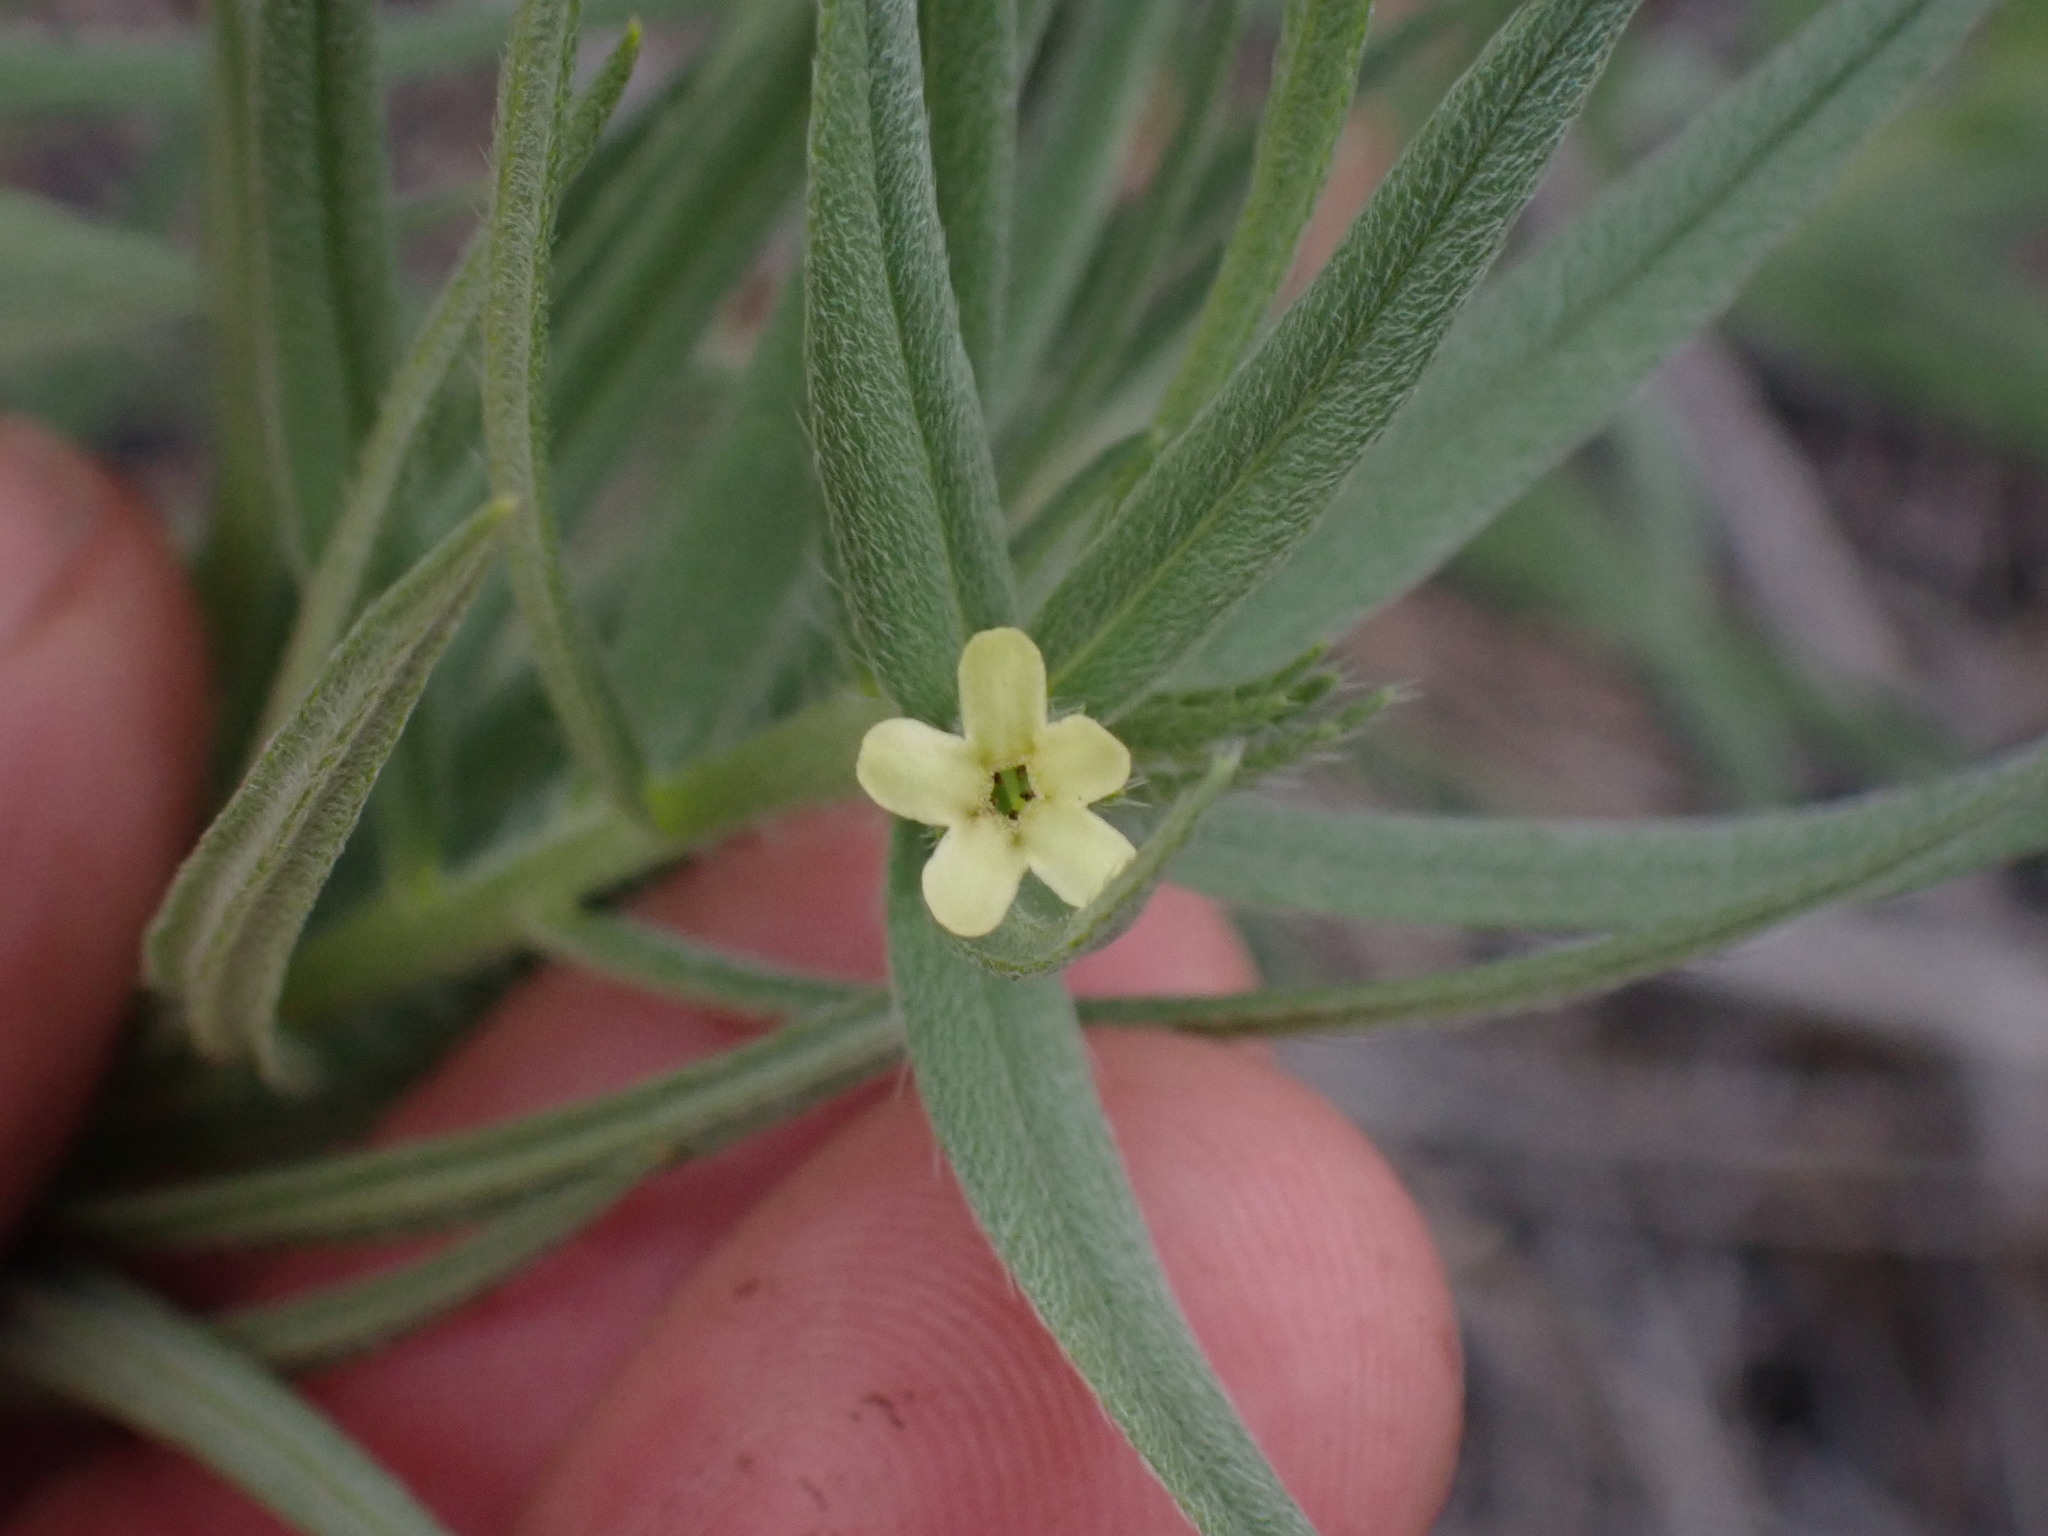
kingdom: Plantae
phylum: Tracheophyta
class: Magnoliopsida
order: Boraginales
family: Boraginaceae
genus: Lithospermum
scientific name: Lithospermum ruderale
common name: Western gromwell
